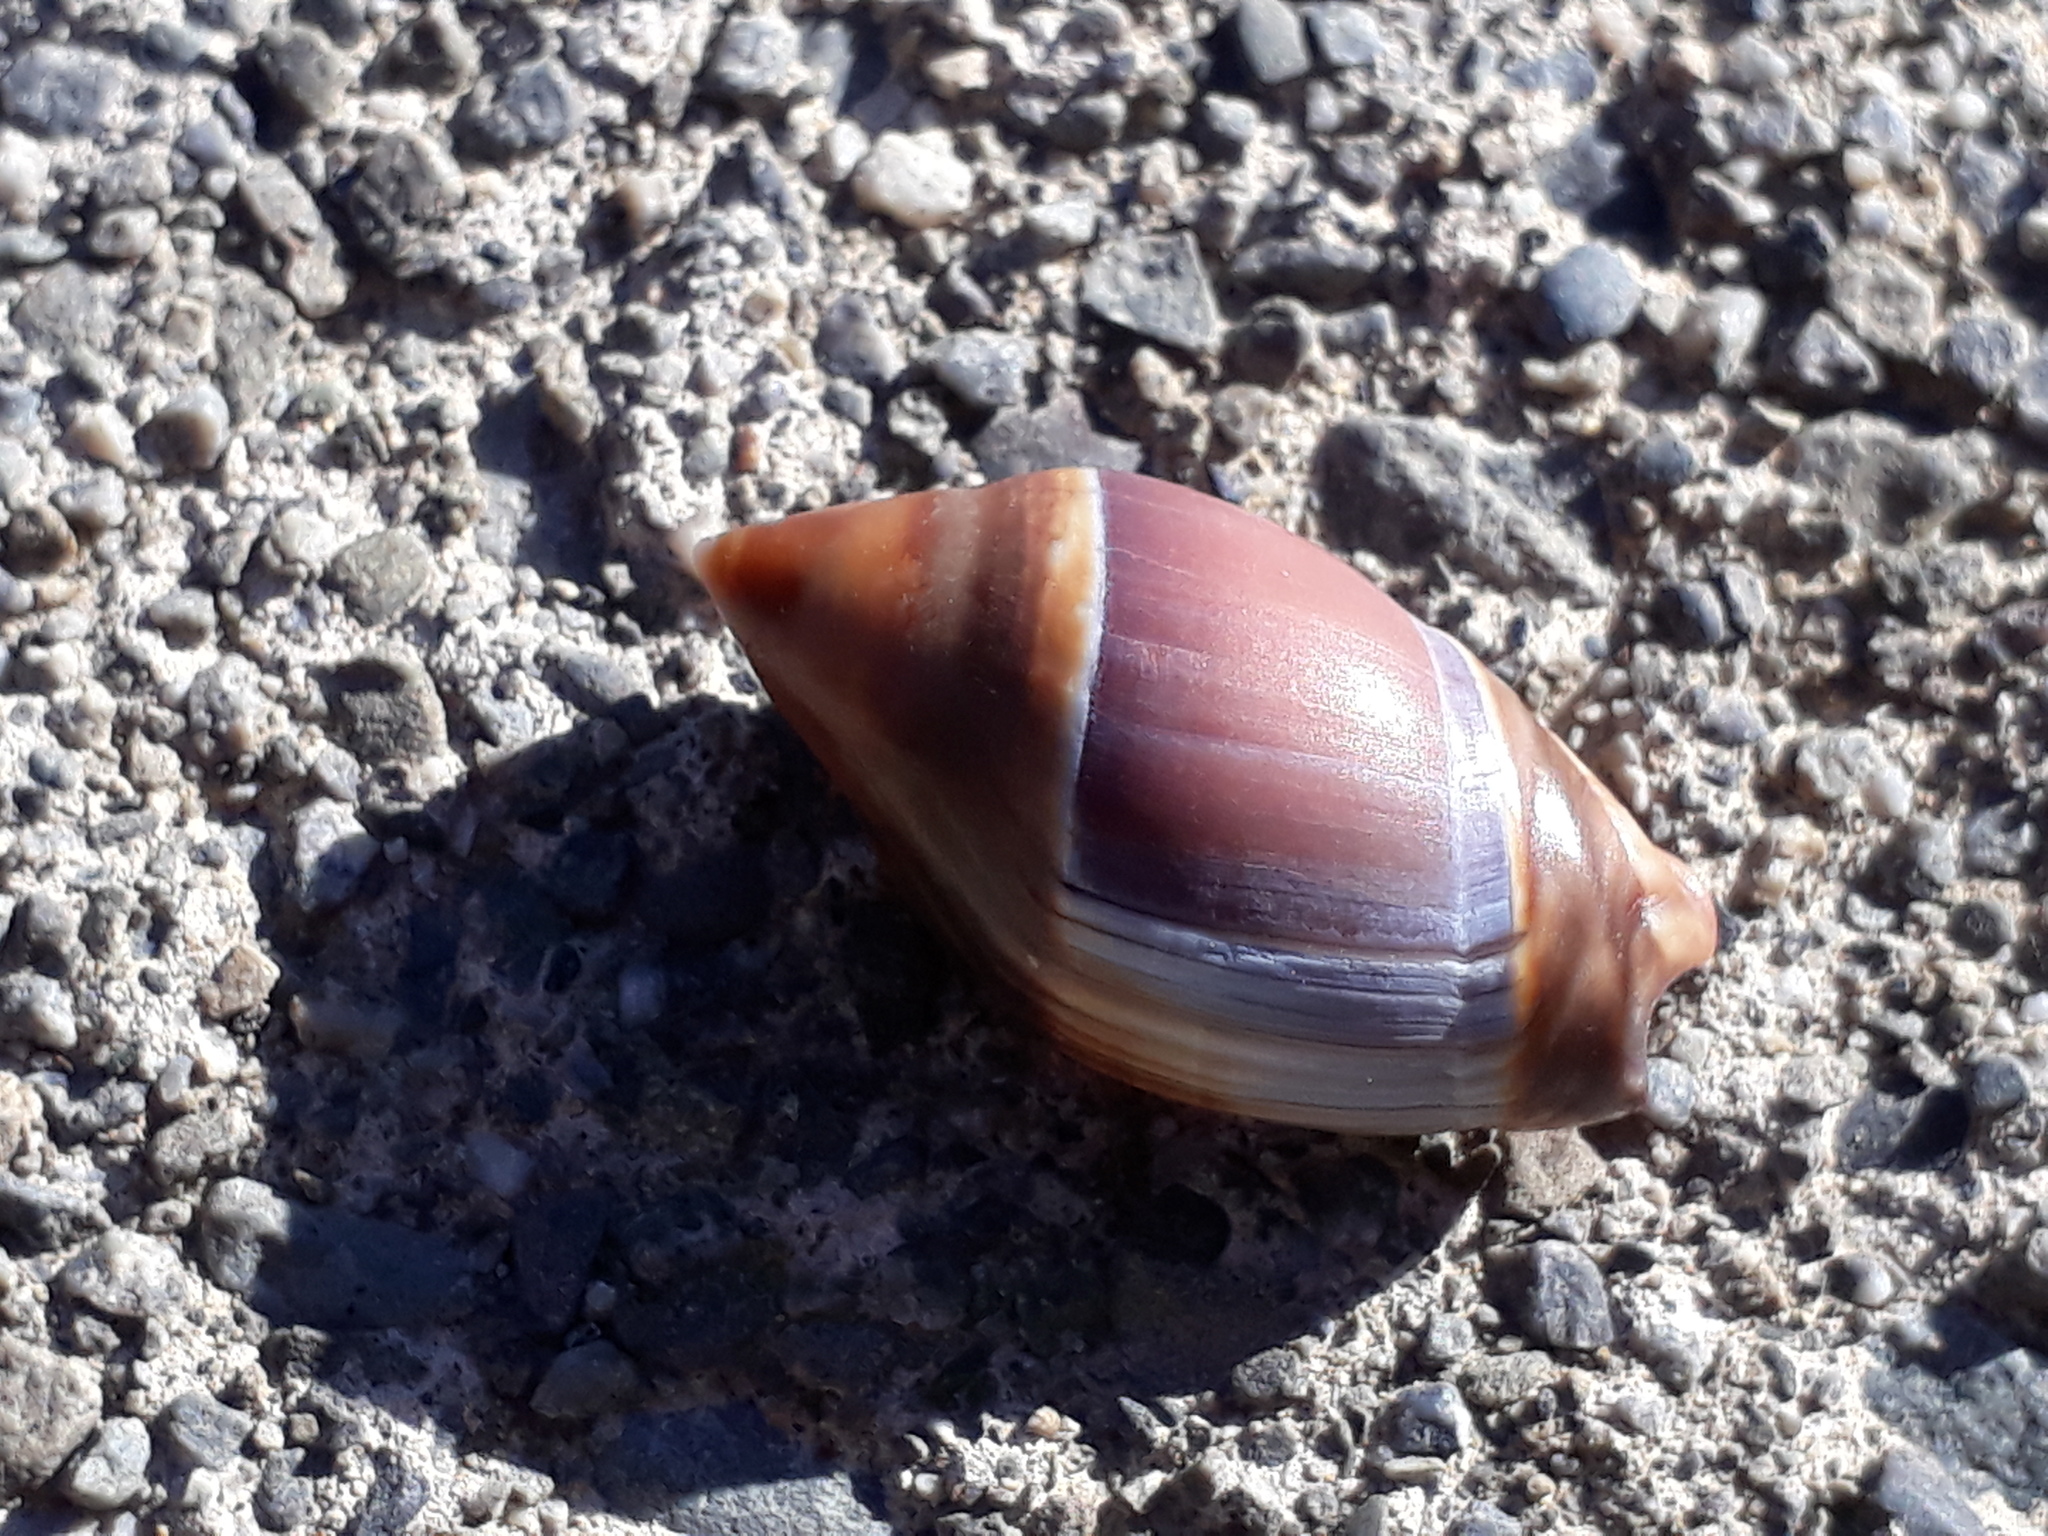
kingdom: Animalia
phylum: Mollusca
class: Gastropoda
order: Neogastropoda
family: Ancillariidae
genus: Amalda
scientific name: Amalda australis
